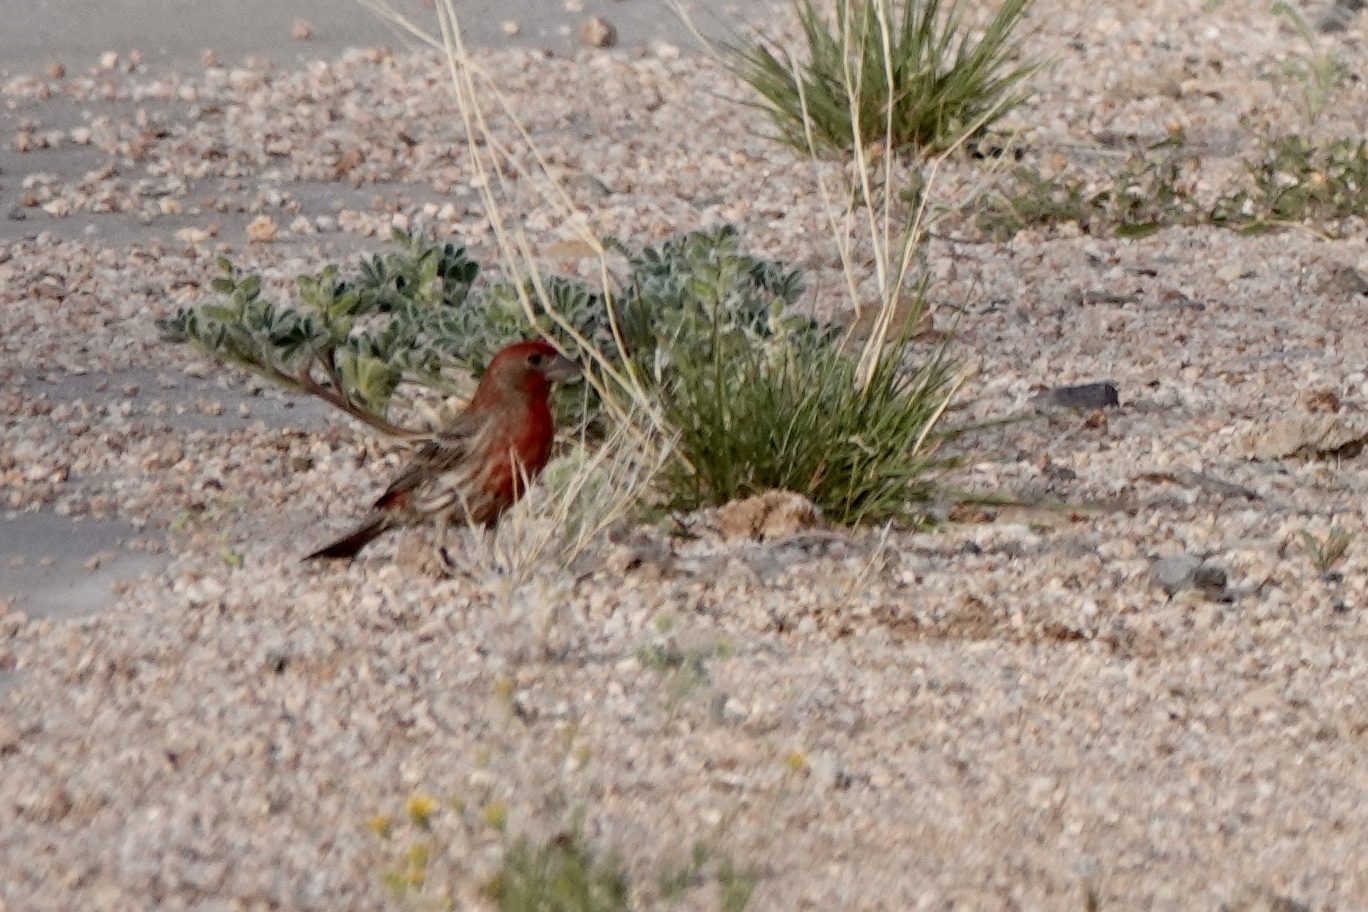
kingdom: Animalia
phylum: Chordata
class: Aves
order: Passeriformes
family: Fringillidae
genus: Haemorhous
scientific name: Haemorhous mexicanus
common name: House finch
